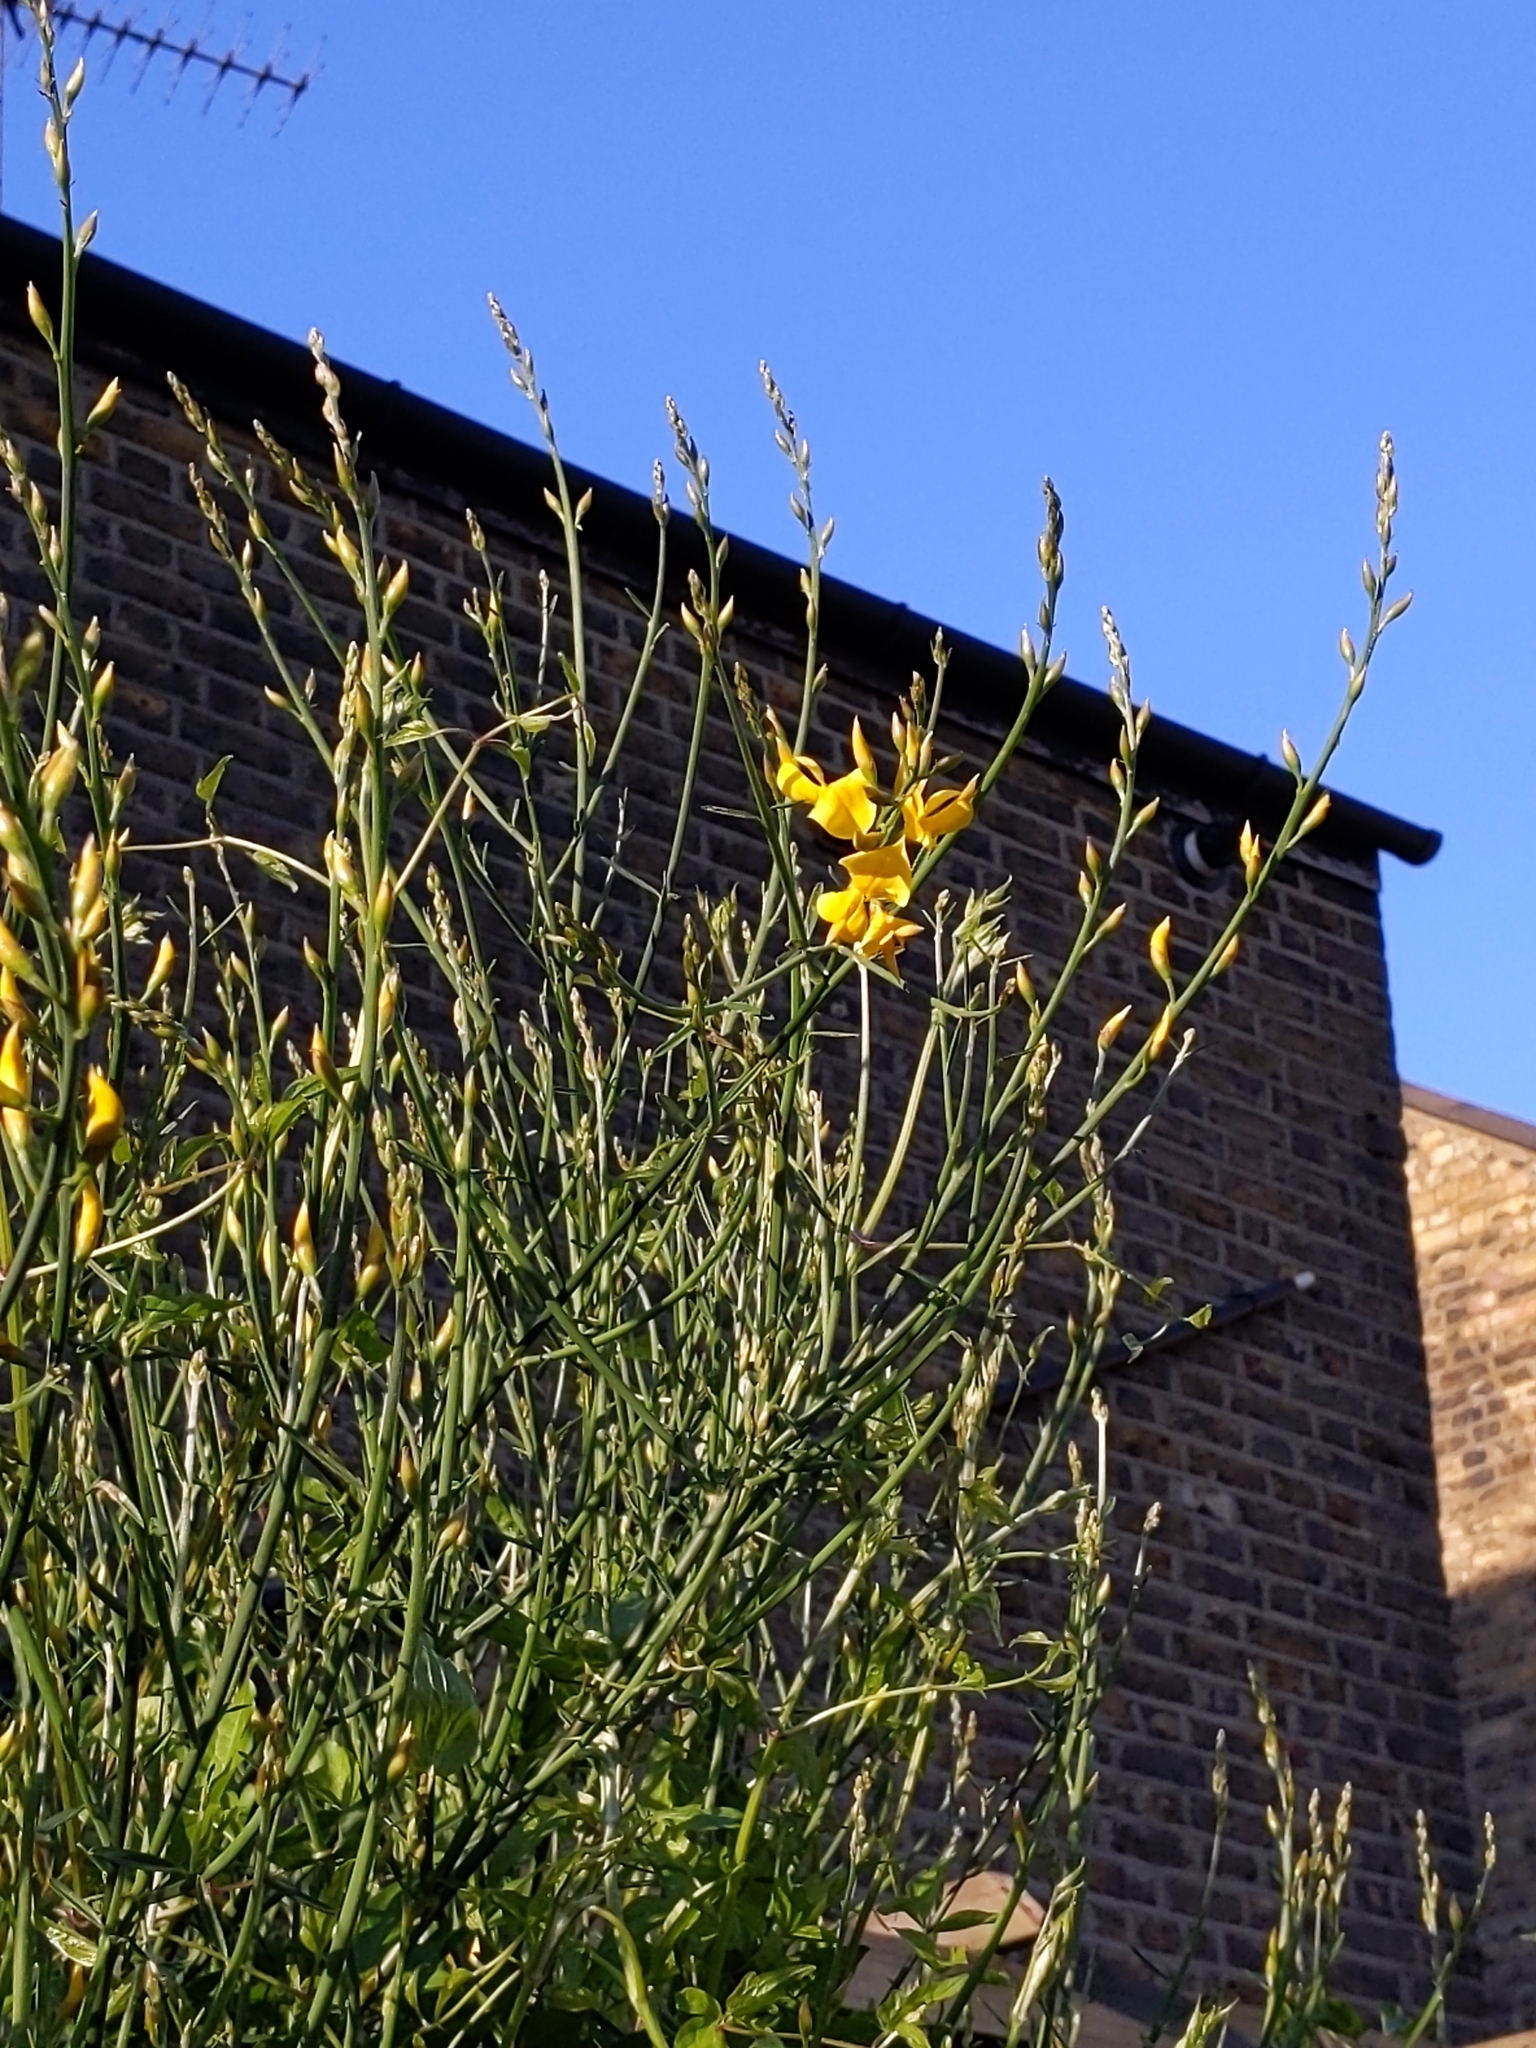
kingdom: Plantae
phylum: Tracheophyta
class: Magnoliopsida
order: Fabales
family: Fabaceae
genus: Spartium
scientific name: Spartium junceum
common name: Spanish broom
